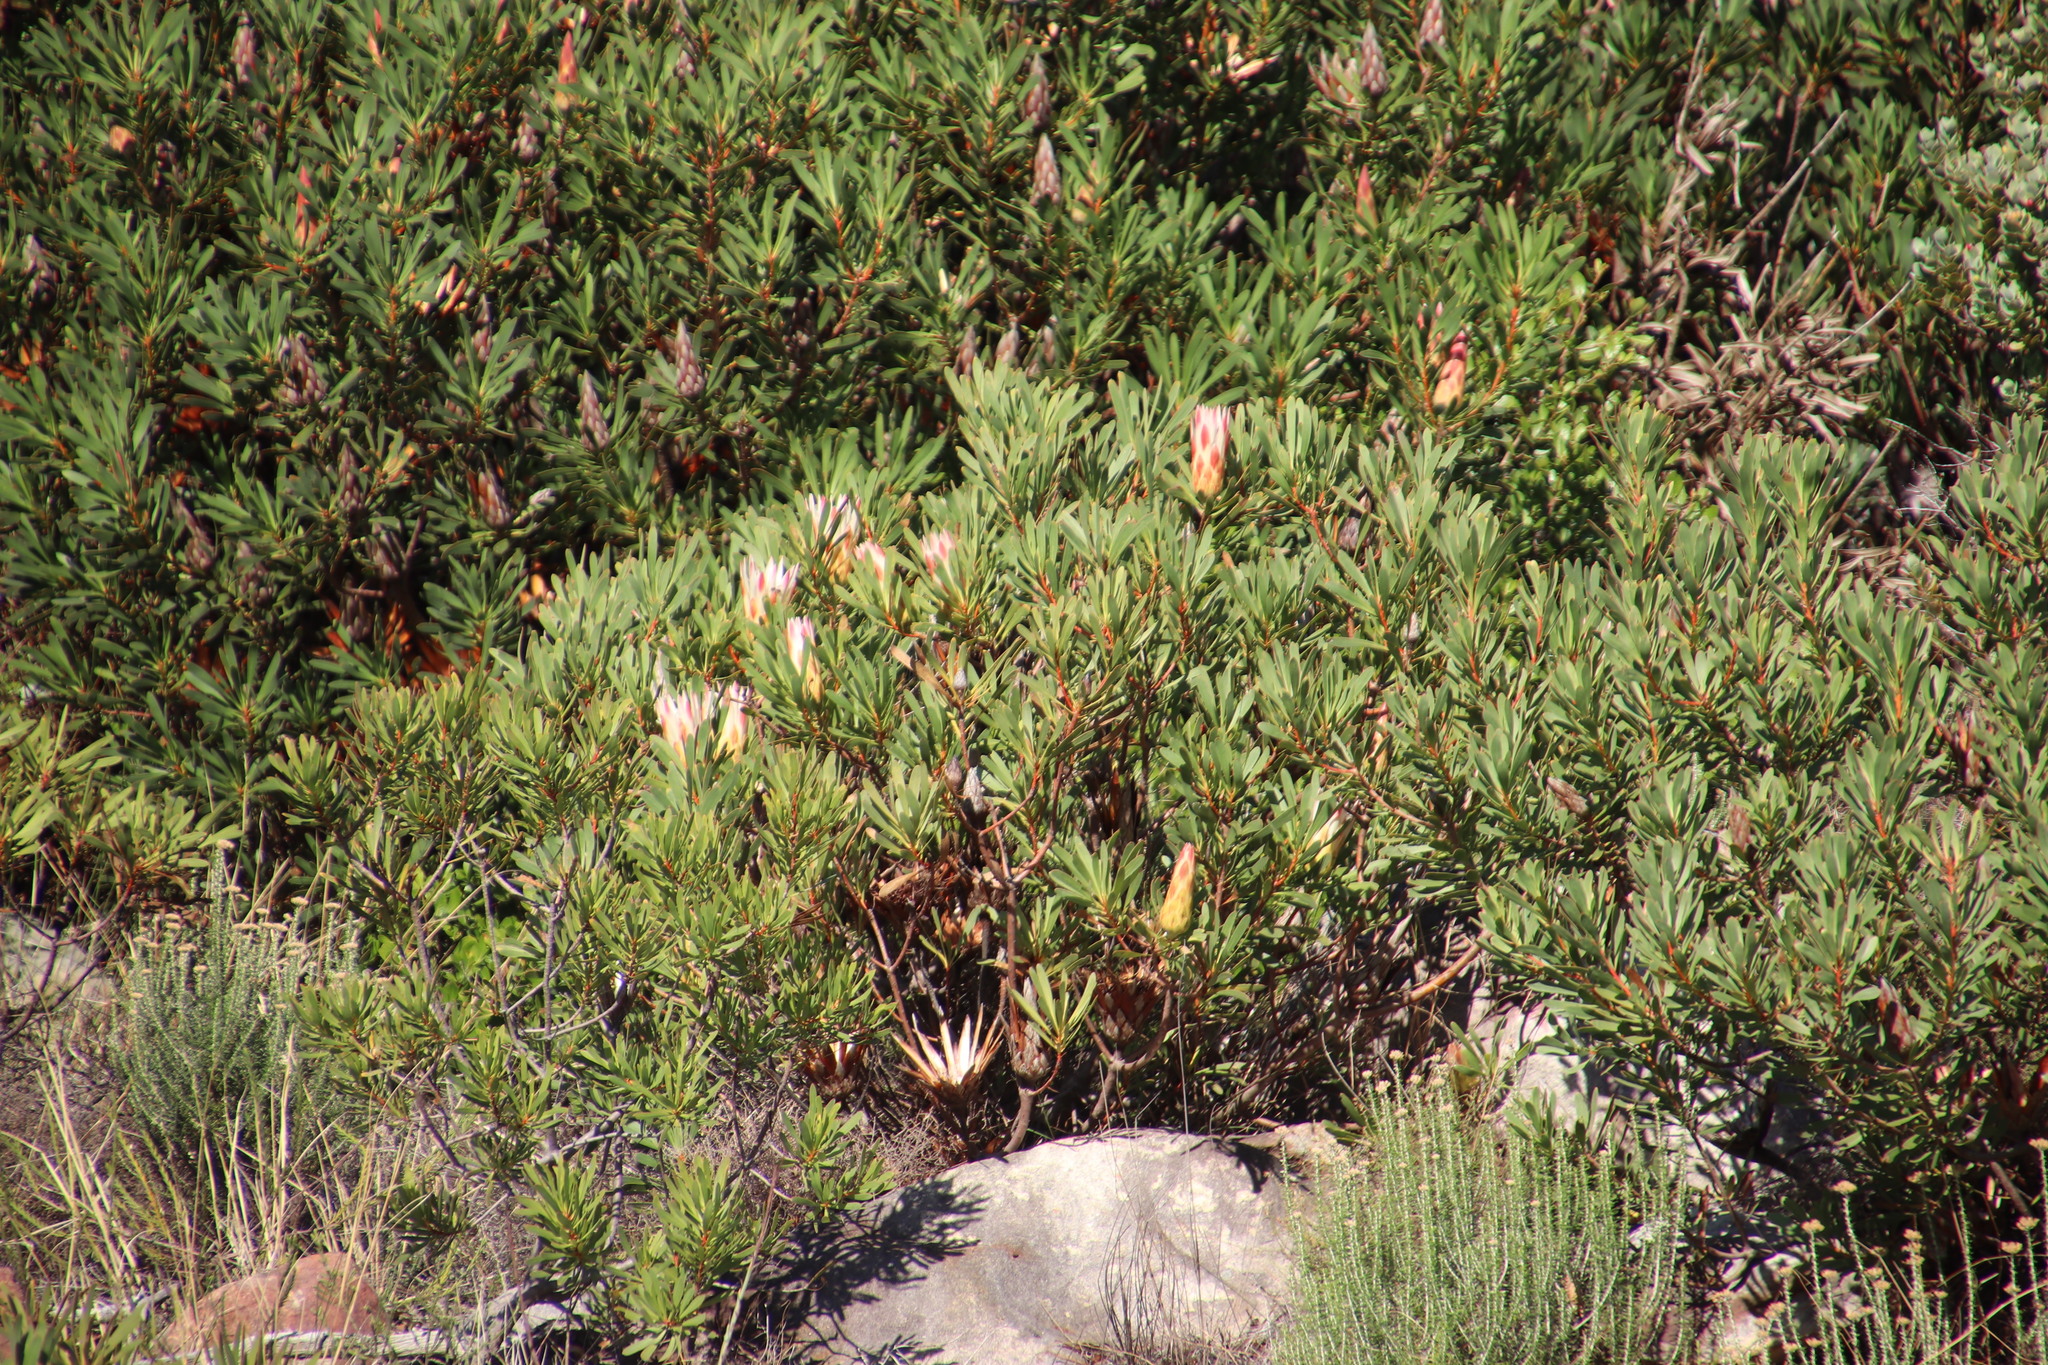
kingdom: Plantae
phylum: Tracheophyta
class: Magnoliopsida
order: Proteales
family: Proteaceae
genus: Protea
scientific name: Protea repens
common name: Sugarbush
